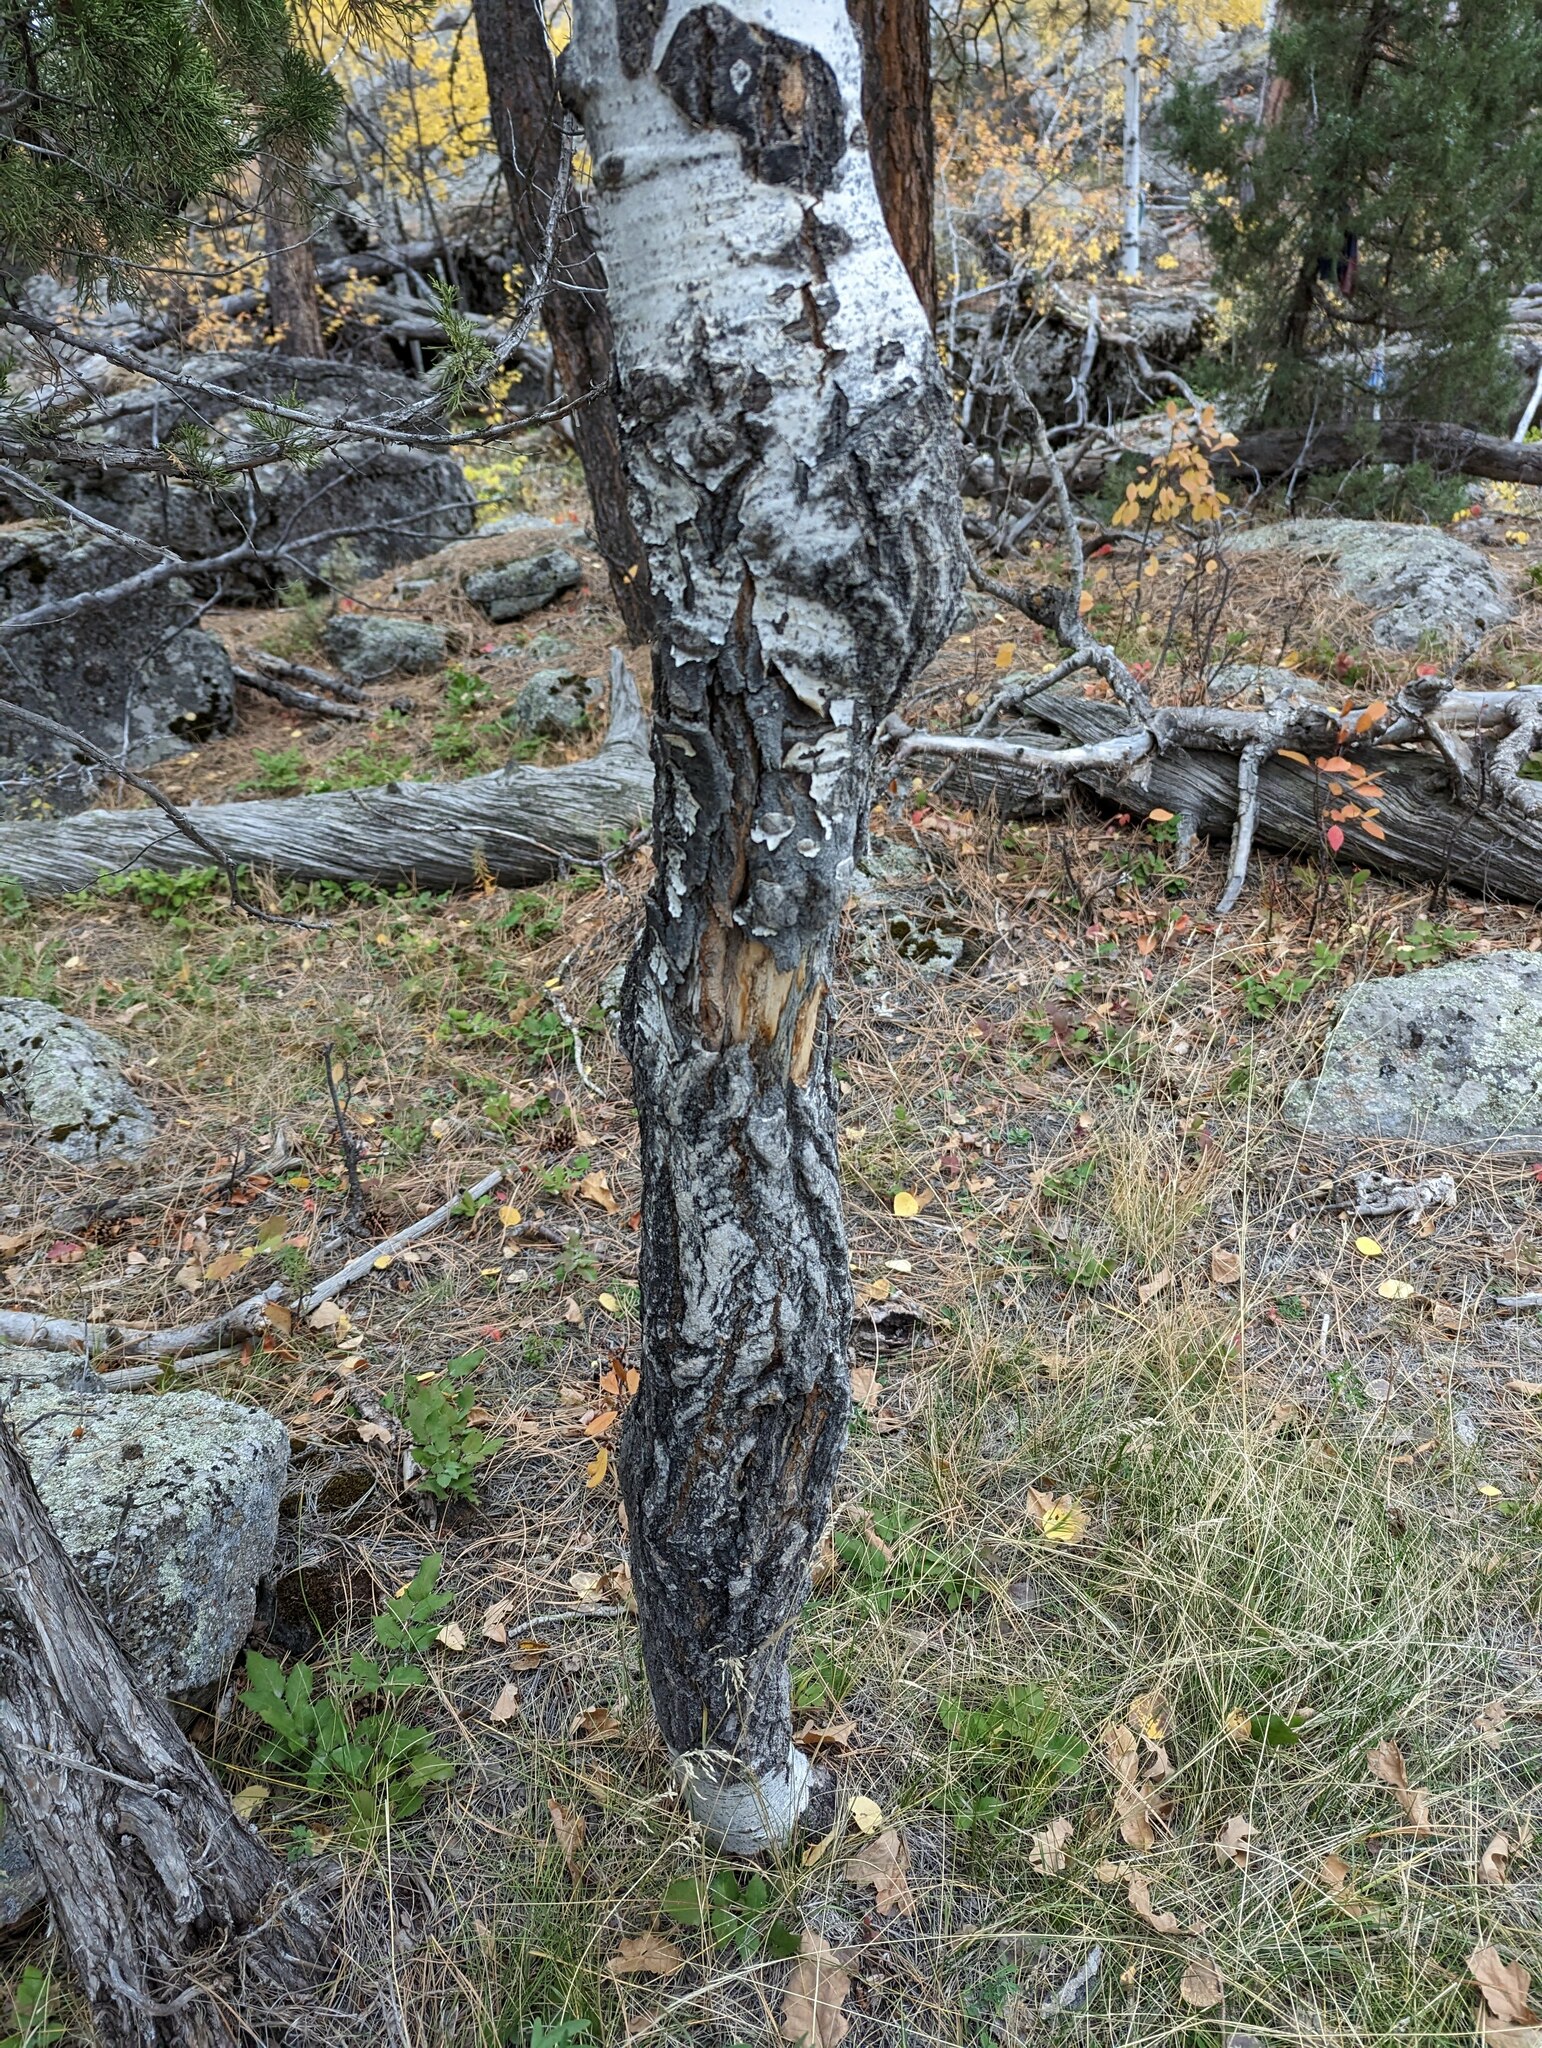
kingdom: Plantae
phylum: Tracheophyta
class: Magnoliopsida
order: Malpighiales
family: Salicaceae
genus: Populus
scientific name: Populus tremuloides
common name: Quaking aspen
